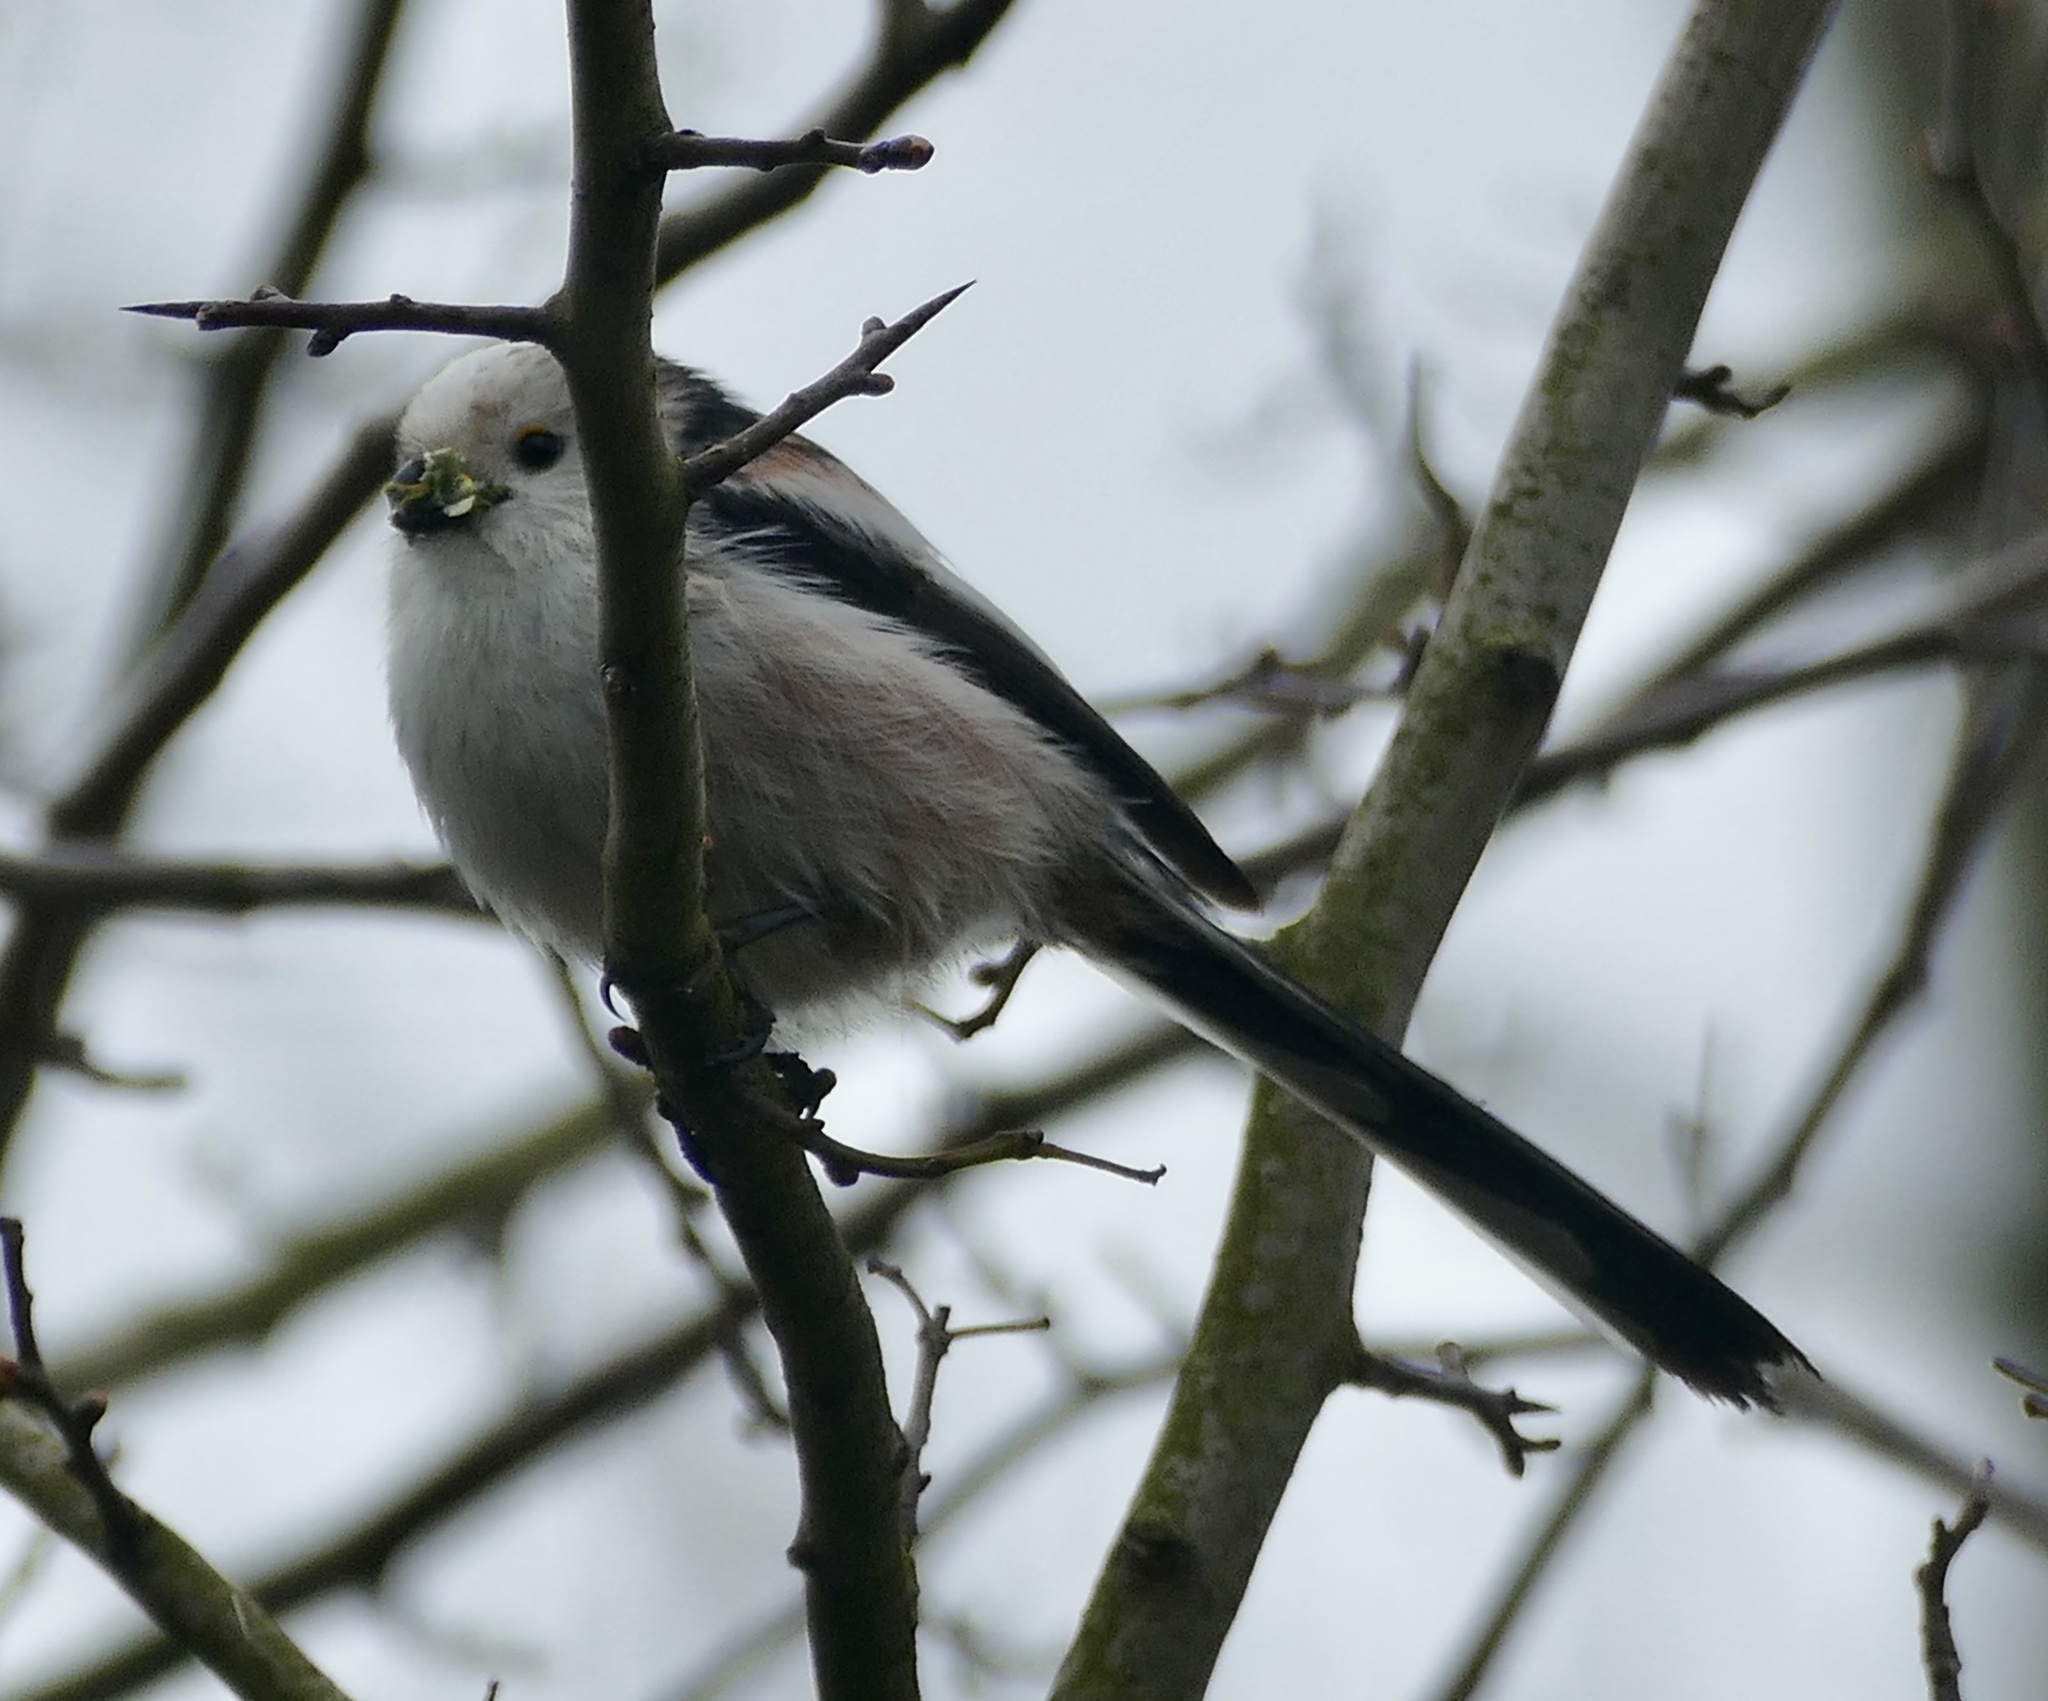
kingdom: Animalia
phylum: Chordata
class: Aves
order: Passeriformes
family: Aegithalidae
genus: Aegithalos
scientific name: Aegithalos caudatus
